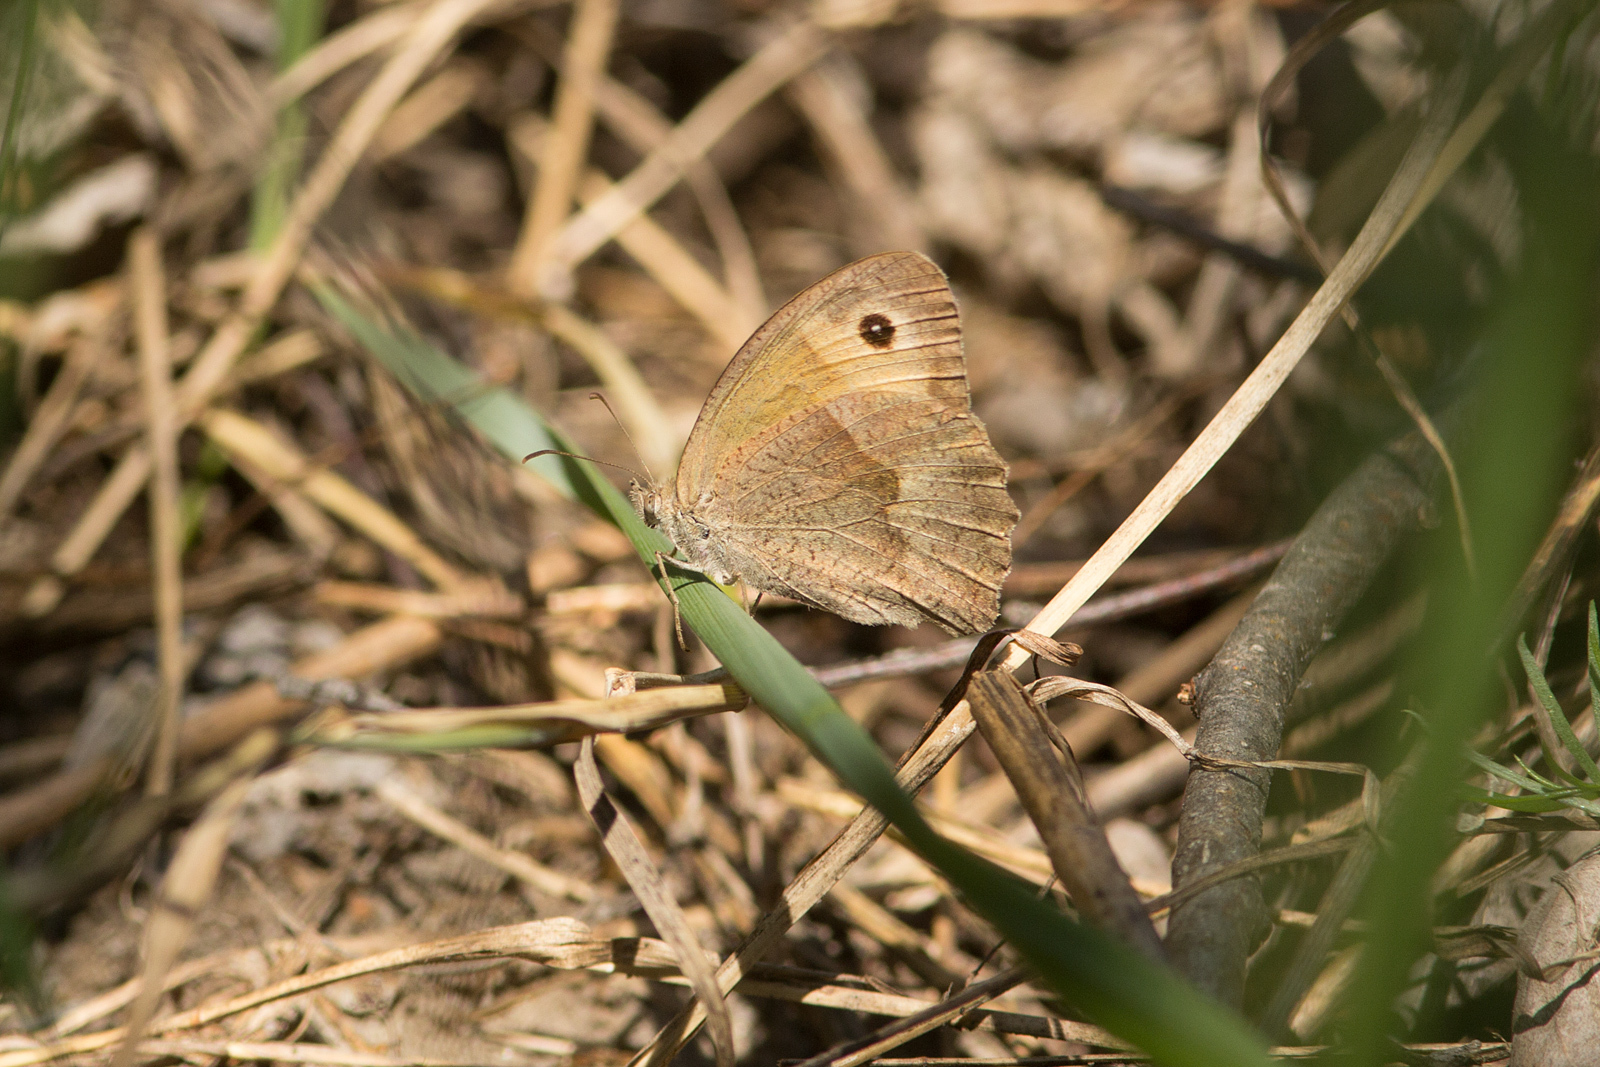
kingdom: Animalia
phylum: Arthropoda
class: Insecta
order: Lepidoptera
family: Nymphalidae
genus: Maniola
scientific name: Maniola jurtina
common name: Meadow brown
